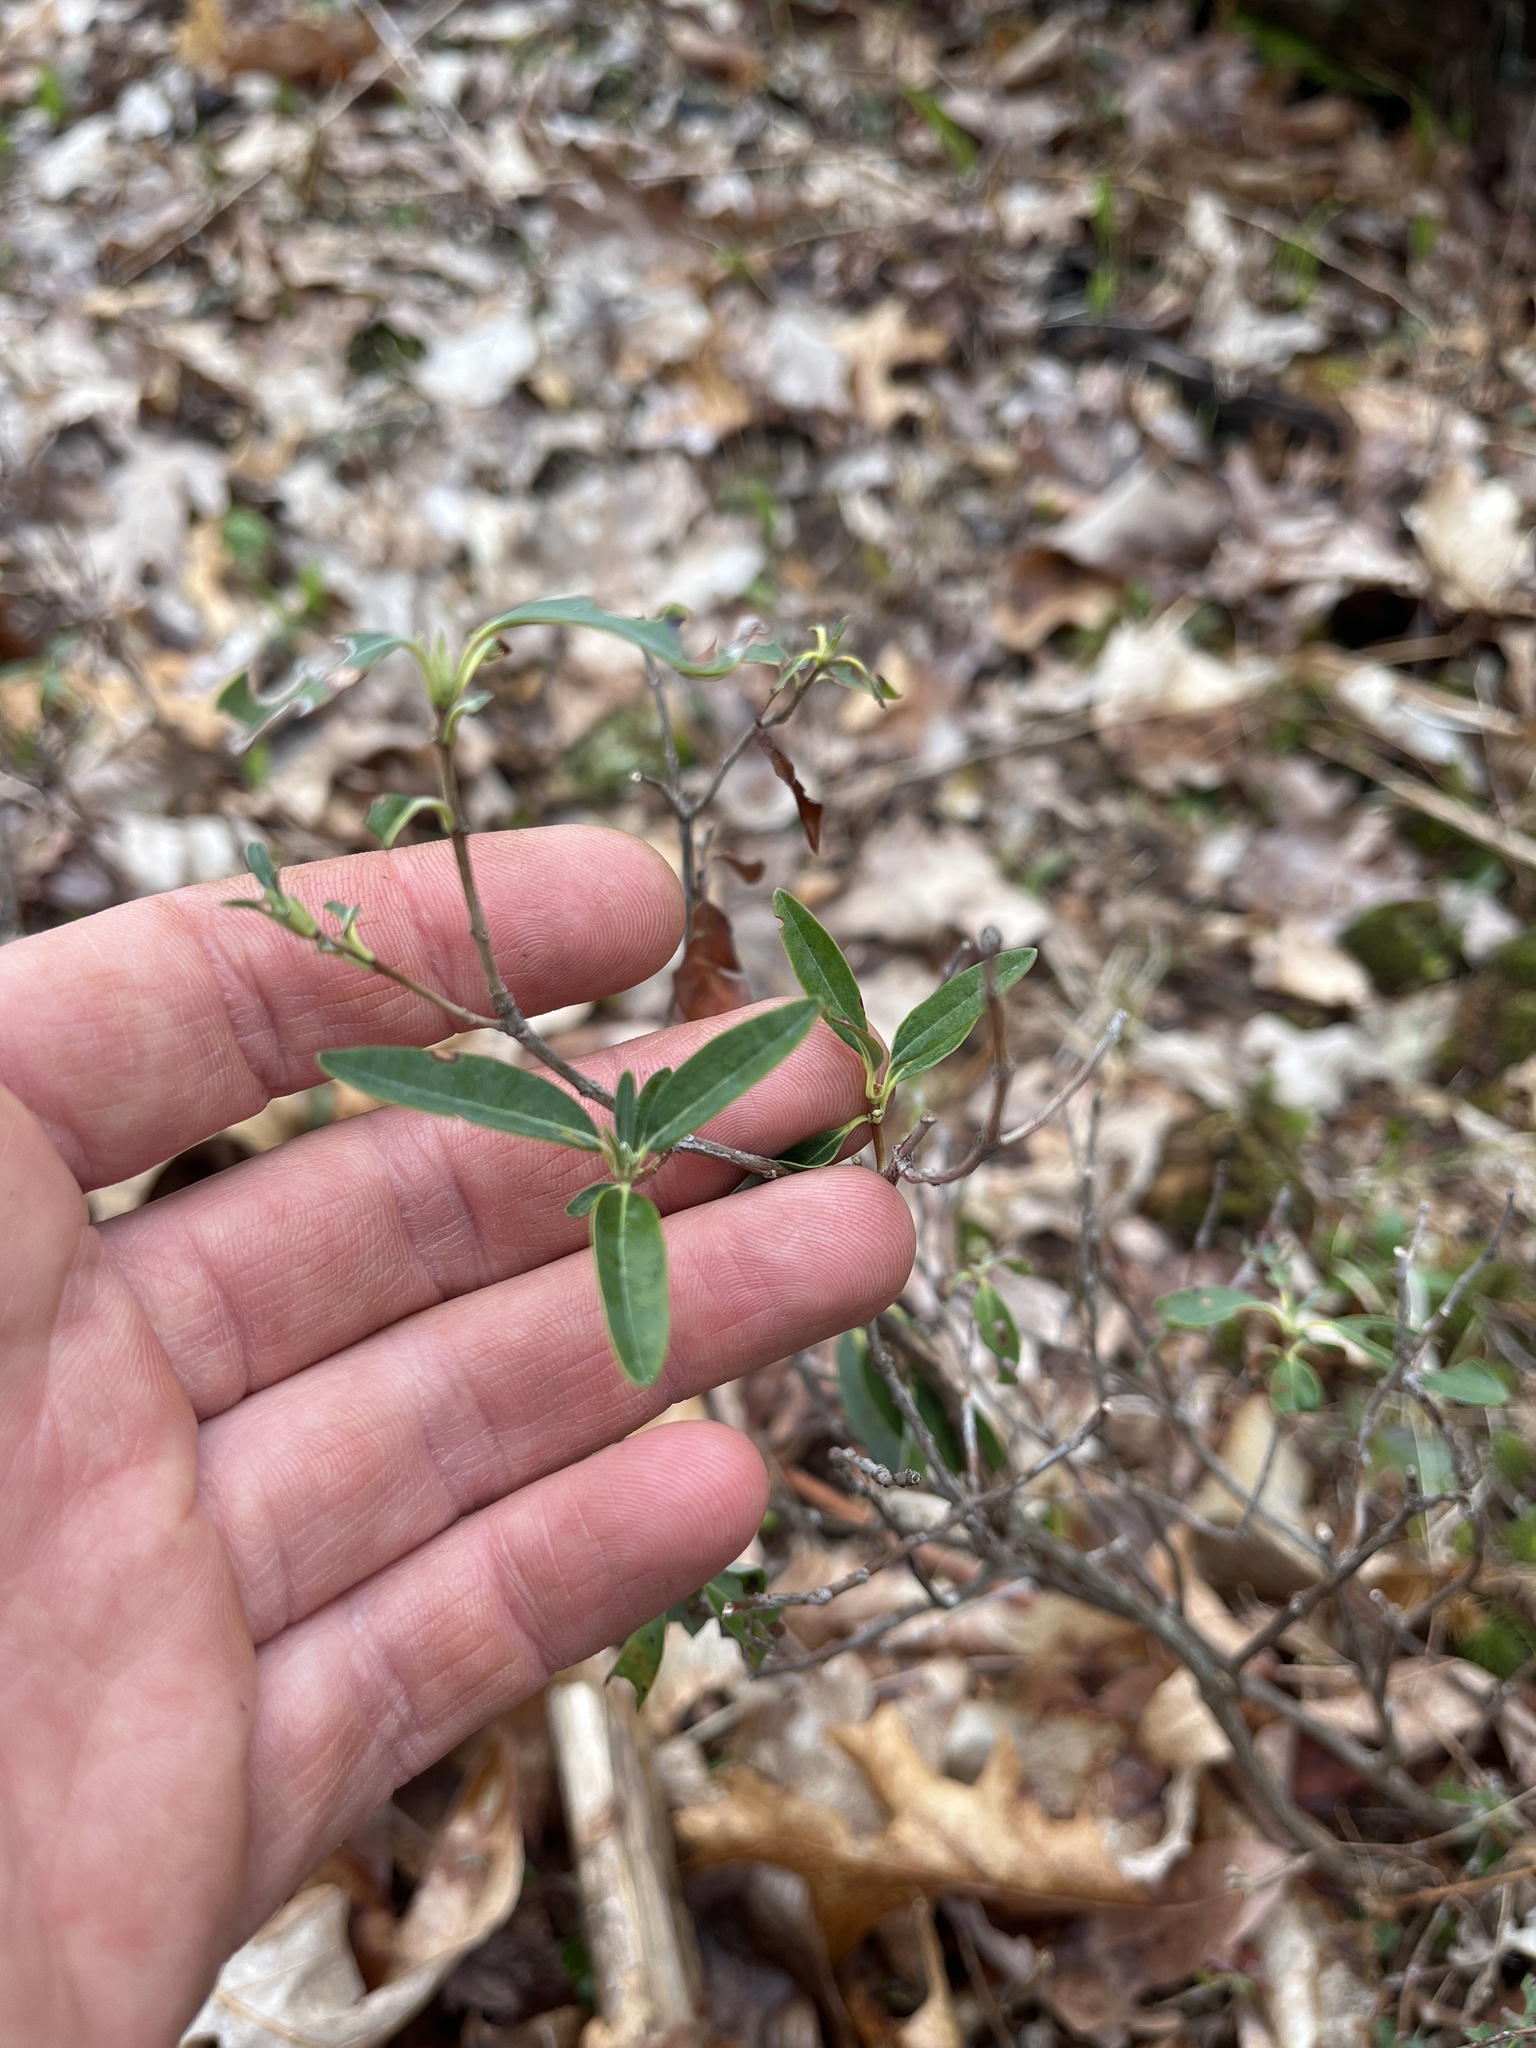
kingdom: Plantae
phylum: Tracheophyta
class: Magnoliopsida
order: Ericales
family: Ericaceae
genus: Kalmia
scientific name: Kalmia angustifolia
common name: Sheep-laurel
